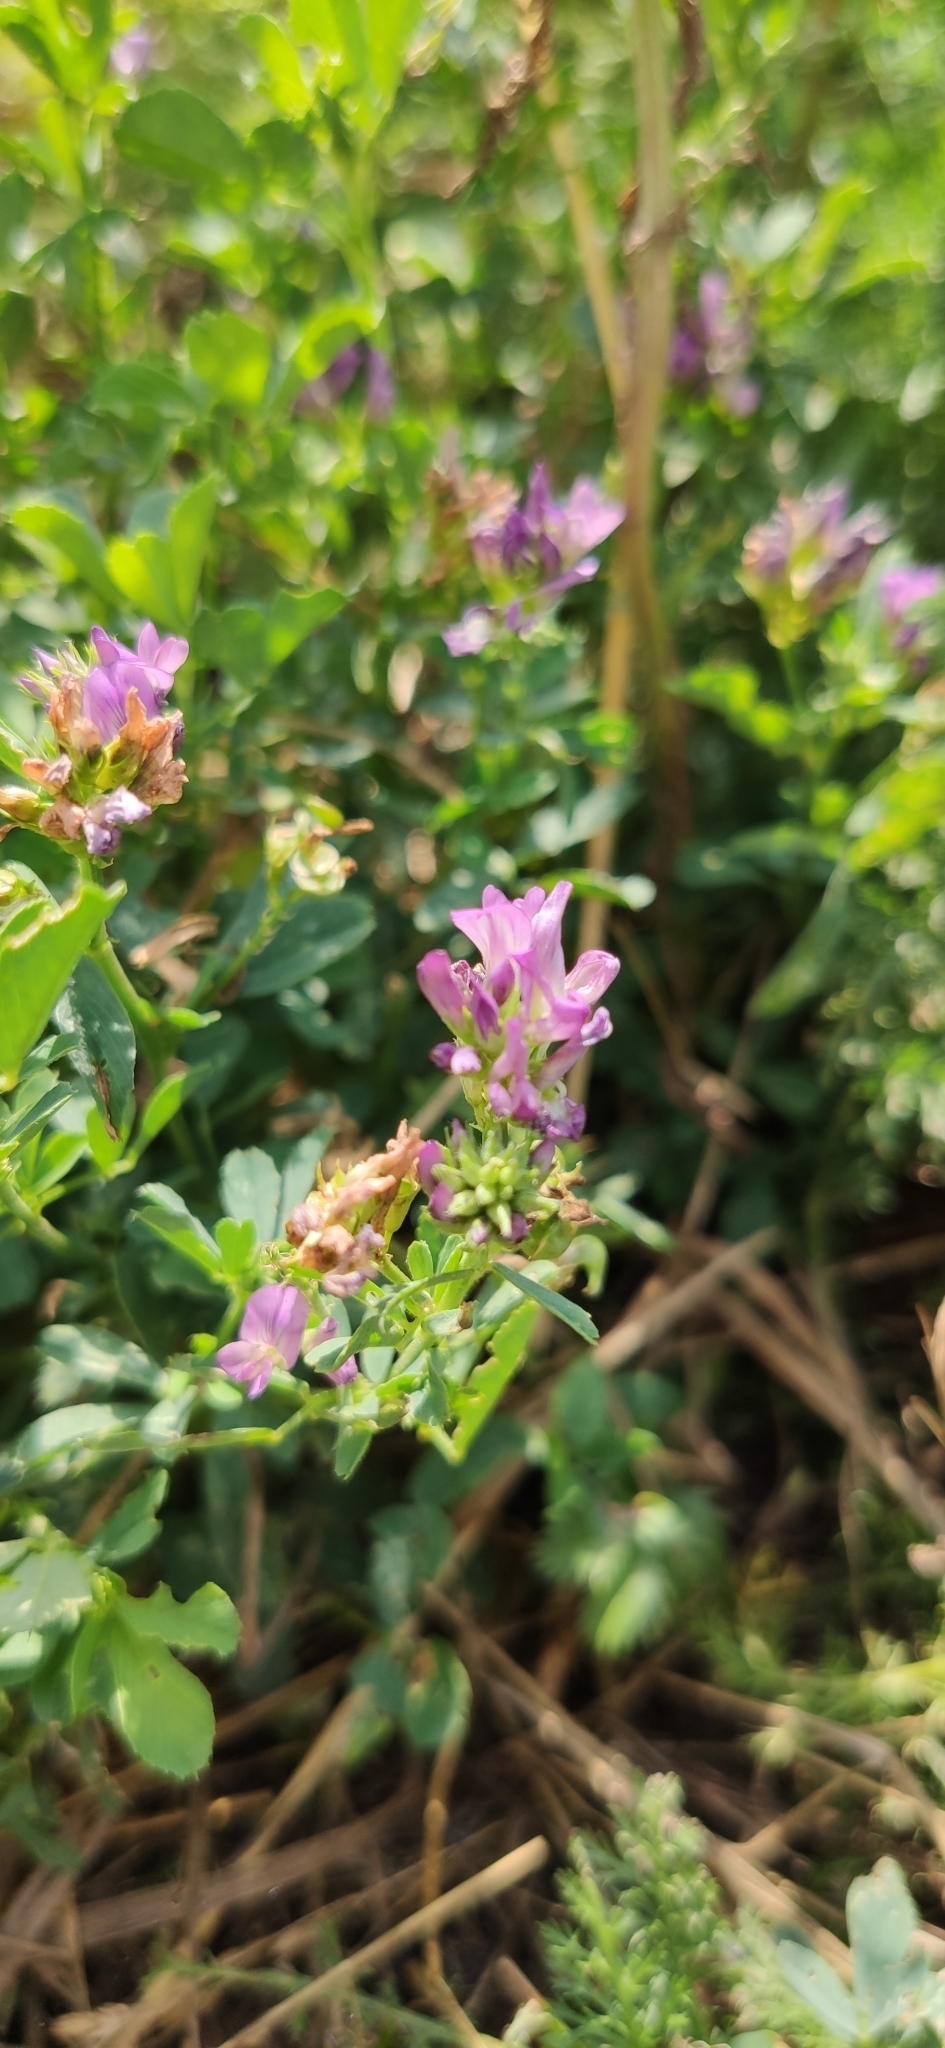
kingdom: Plantae
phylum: Tracheophyta
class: Magnoliopsida
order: Fabales
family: Fabaceae
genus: Medicago
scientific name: Medicago sativa
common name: Alfalfa
